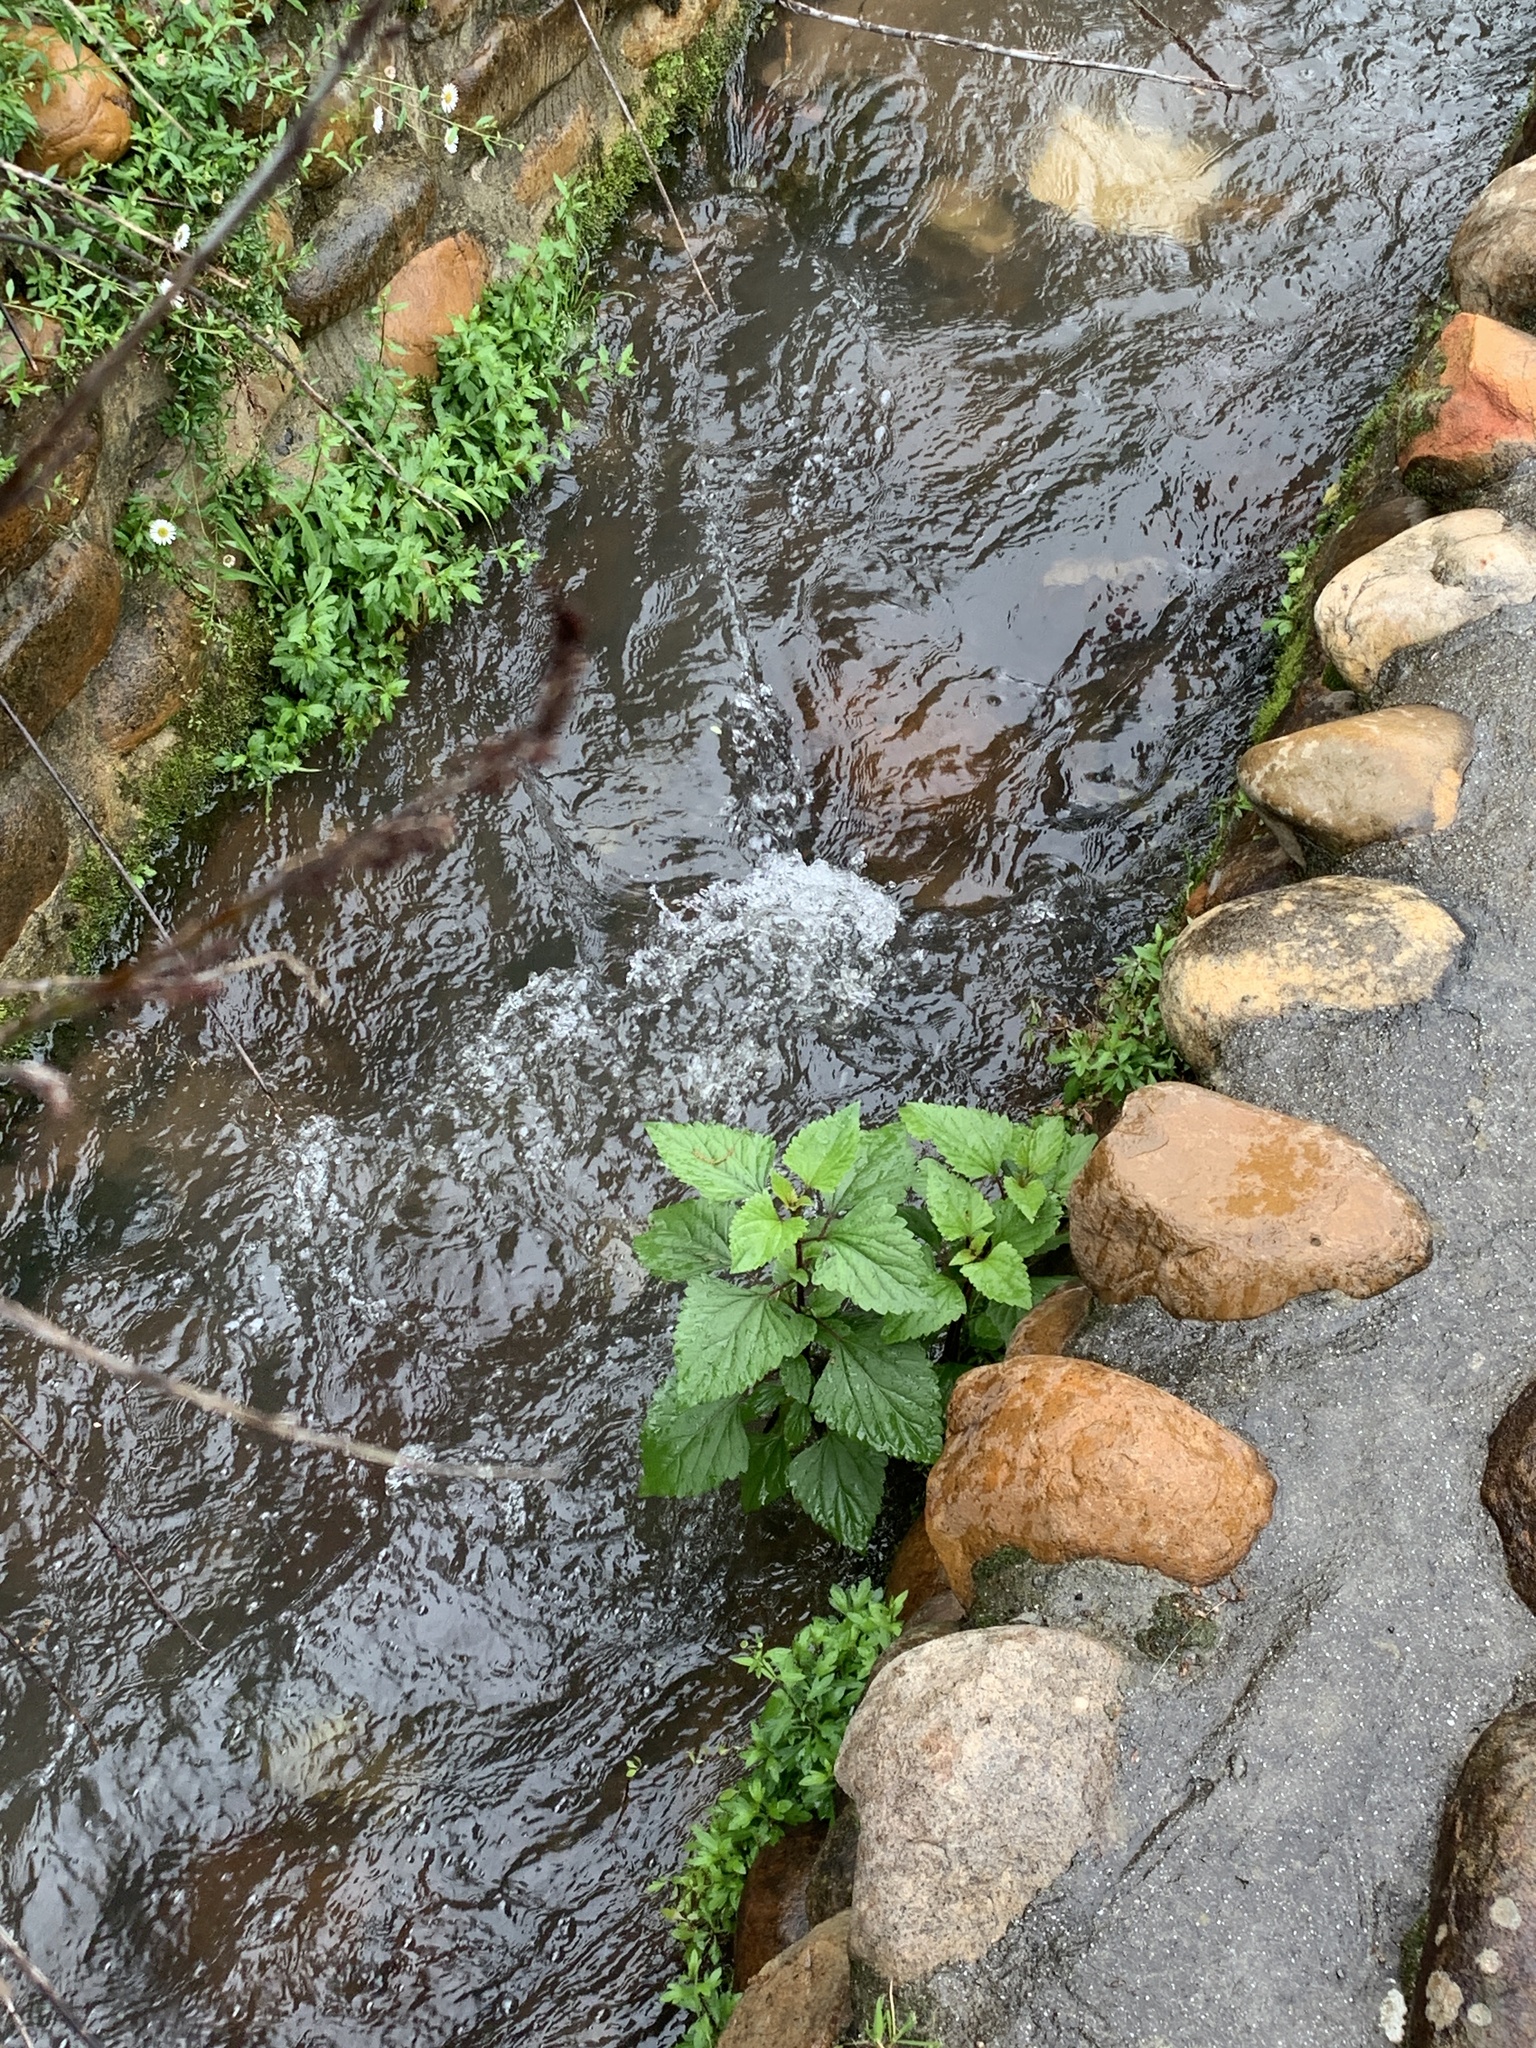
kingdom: Plantae
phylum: Tracheophyta
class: Magnoliopsida
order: Asterales
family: Asteraceae
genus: Ageratina
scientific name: Ageratina adenophora
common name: Sticky snakeroot
